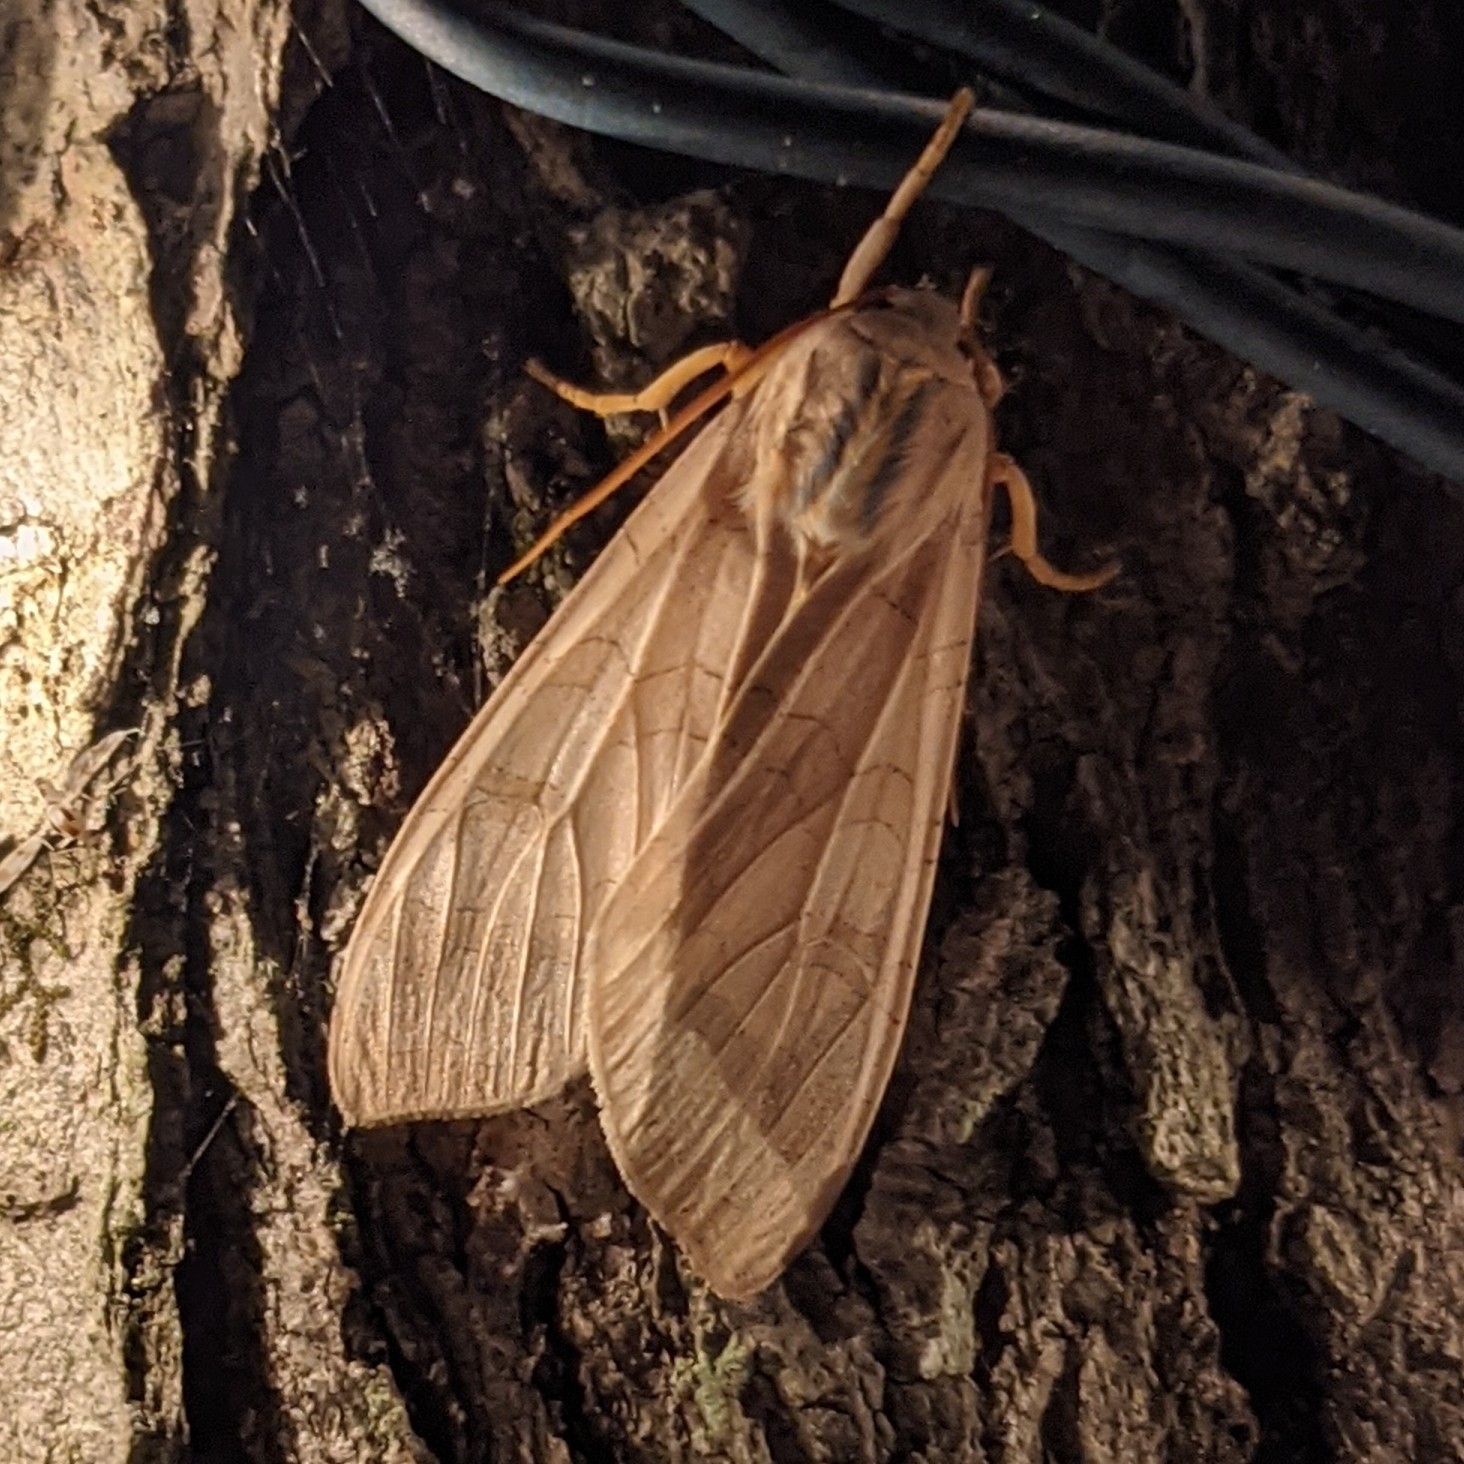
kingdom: Animalia
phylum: Arthropoda
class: Insecta
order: Lepidoptera
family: Erebidae
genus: Halysidota
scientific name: Halysidota
